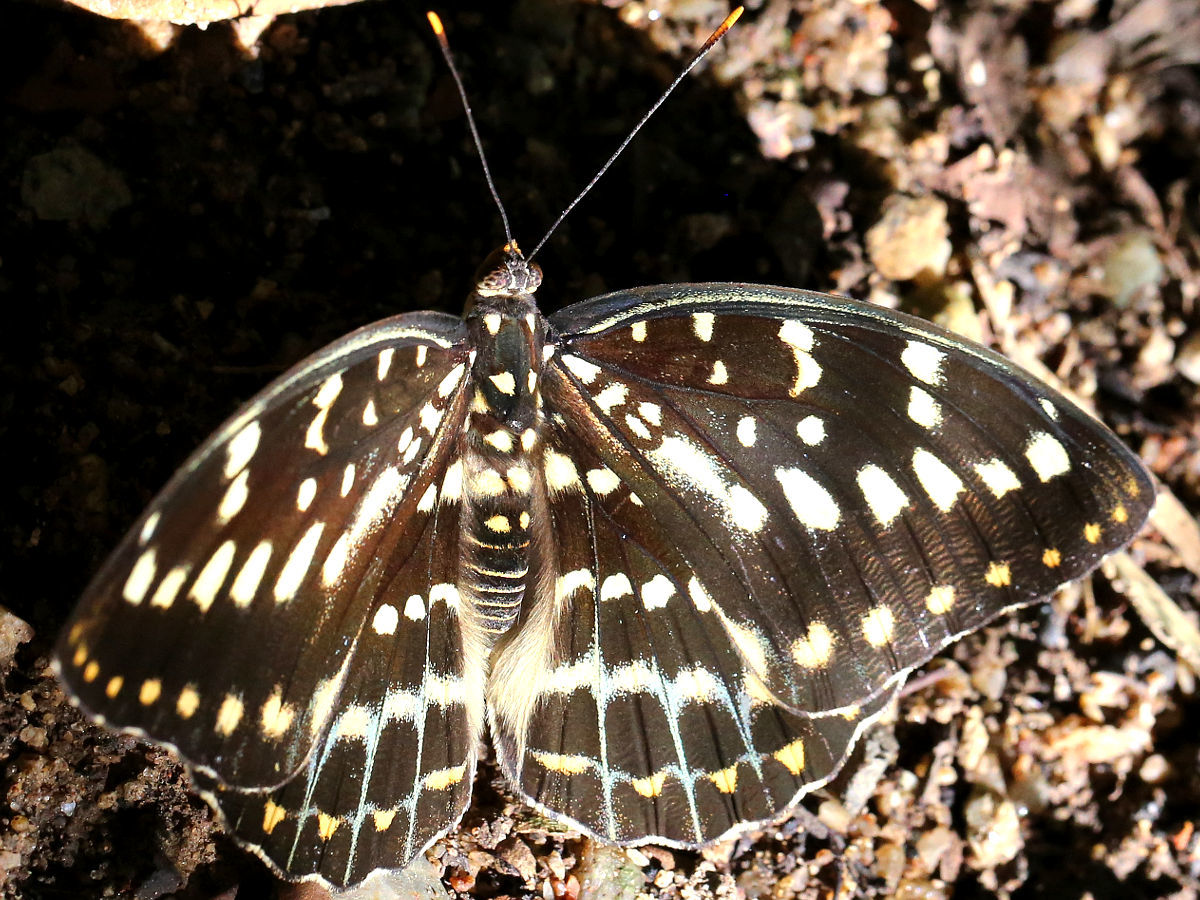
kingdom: Animalia
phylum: Arthropoda
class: Insecta
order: Lepidoptera
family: Nymphalidae
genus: Lexias
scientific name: Lexias pardalis
